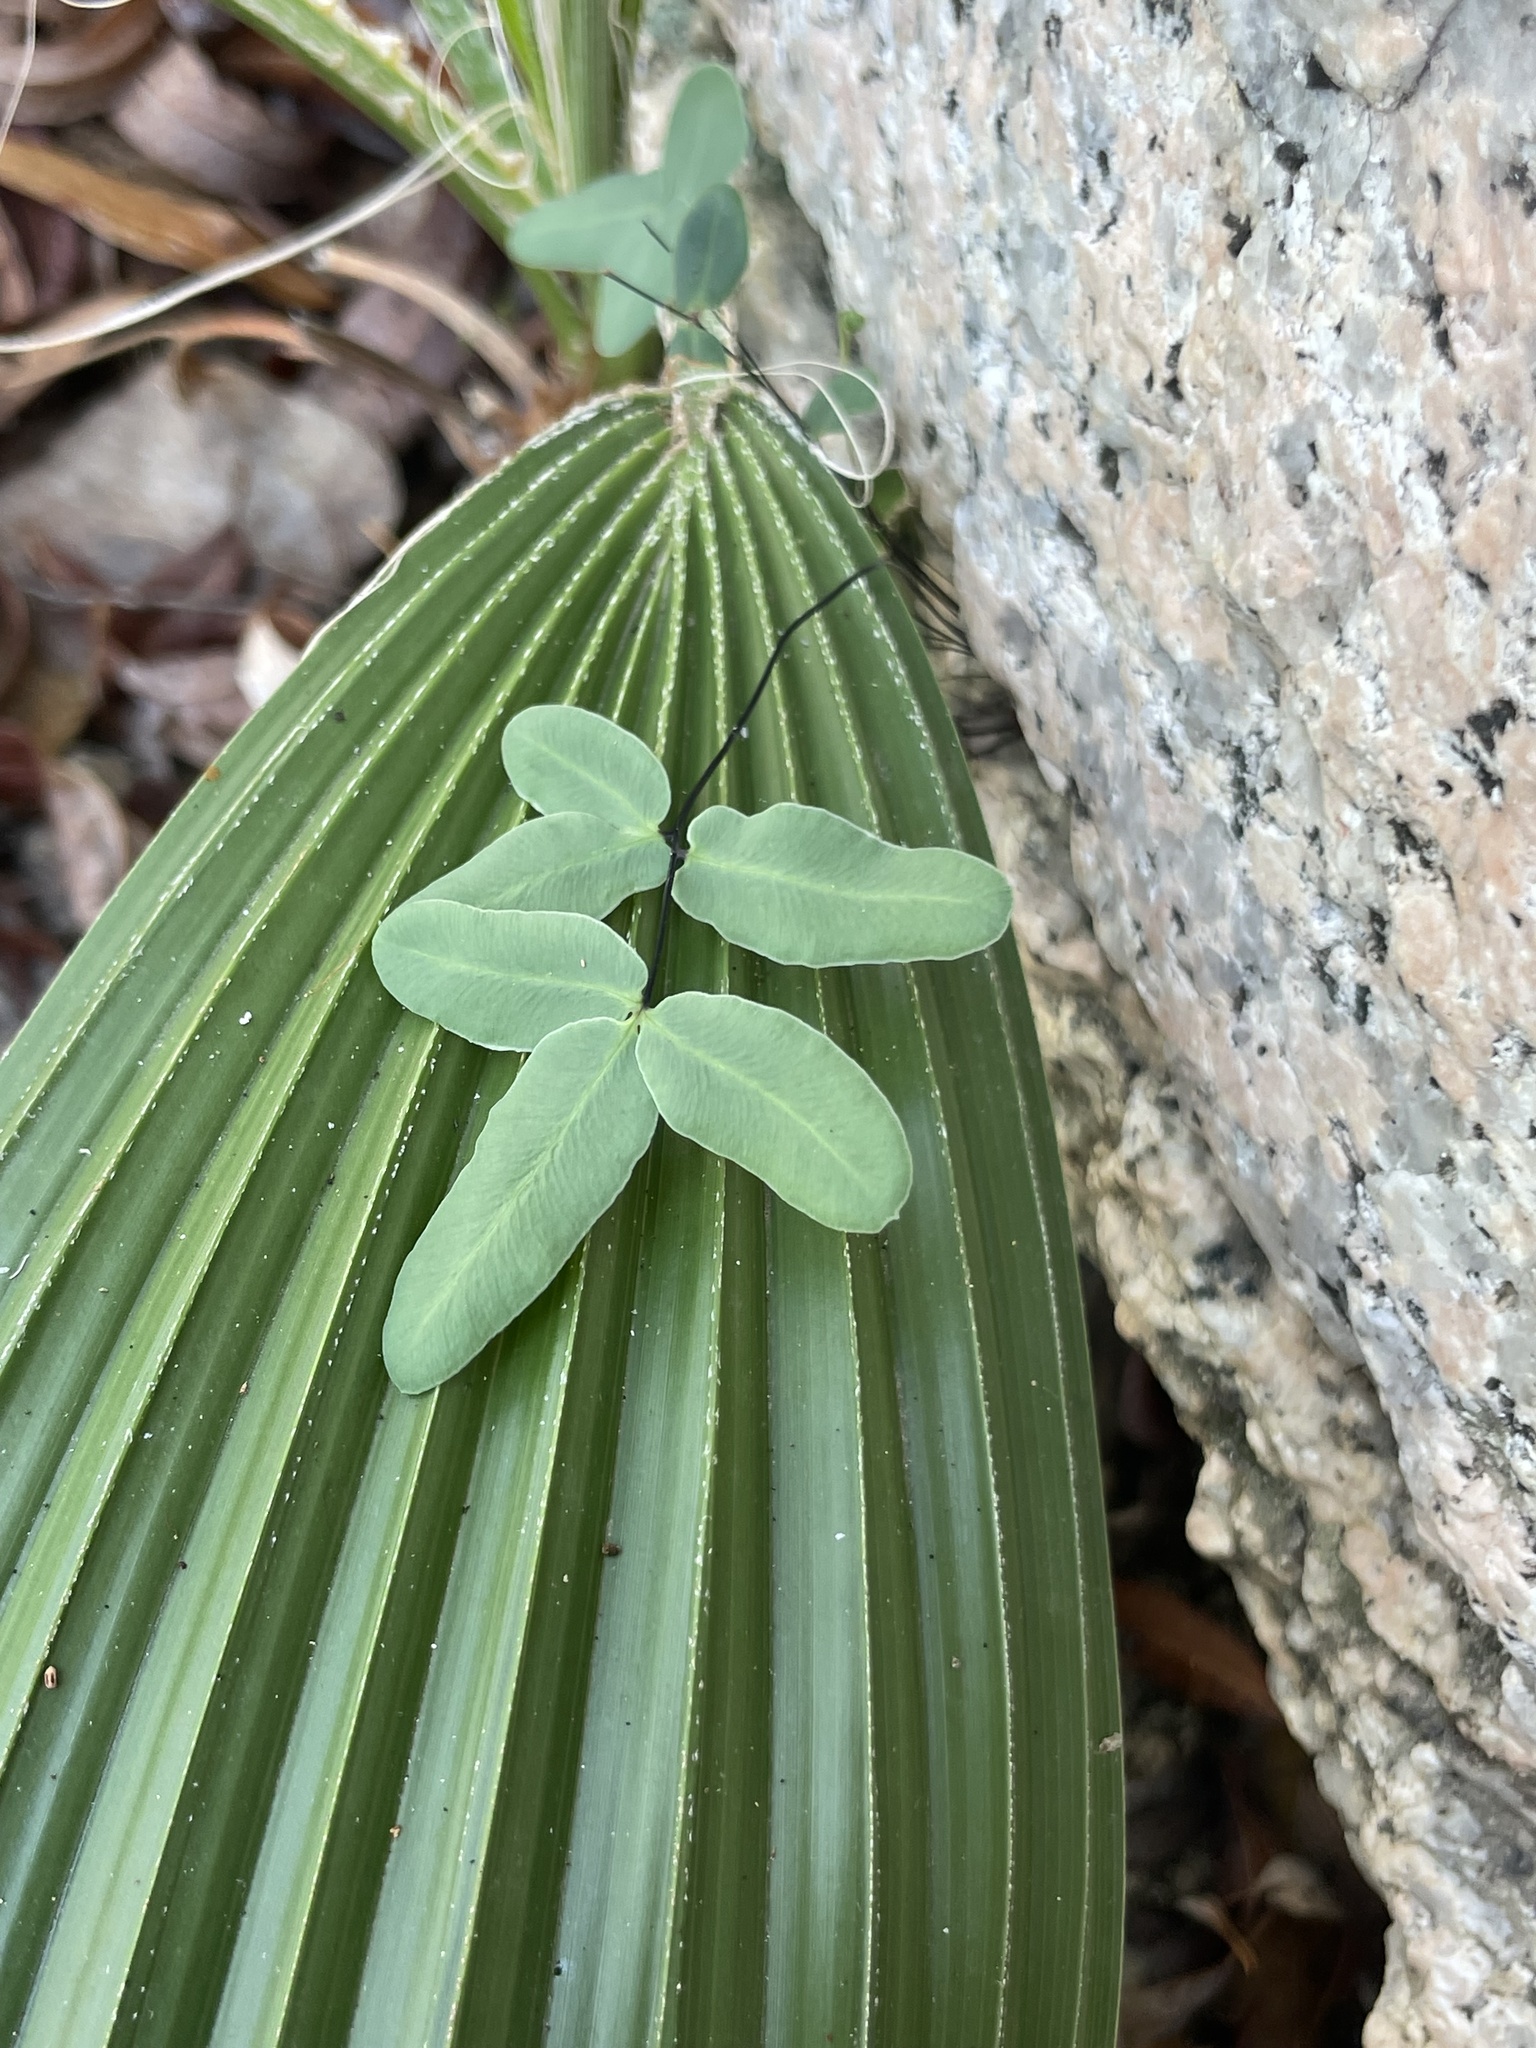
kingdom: Plantae
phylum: Tracheophyta
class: Polypodiopsida
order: Polypodiales
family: Pteridaceae
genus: Pellaea
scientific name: Pellaea ternifolia
